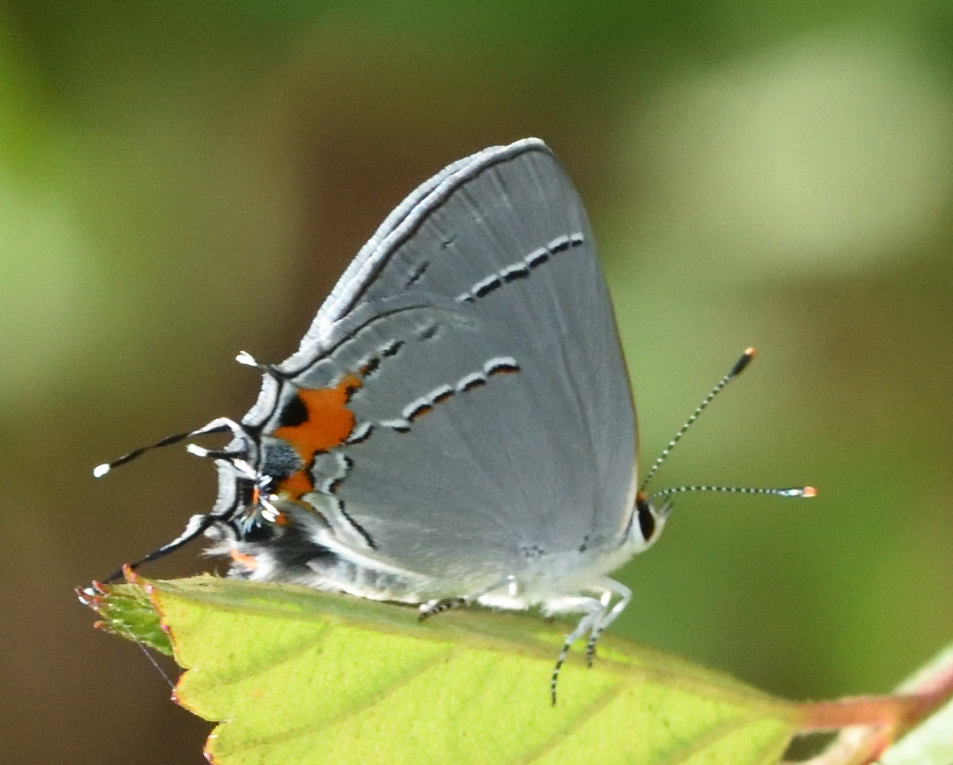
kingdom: Animalia
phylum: Arthropoda
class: Insecta
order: Lepidoptera
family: Lycaenidae
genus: Strymon
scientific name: Strymon melinus
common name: Gray hairstreak
